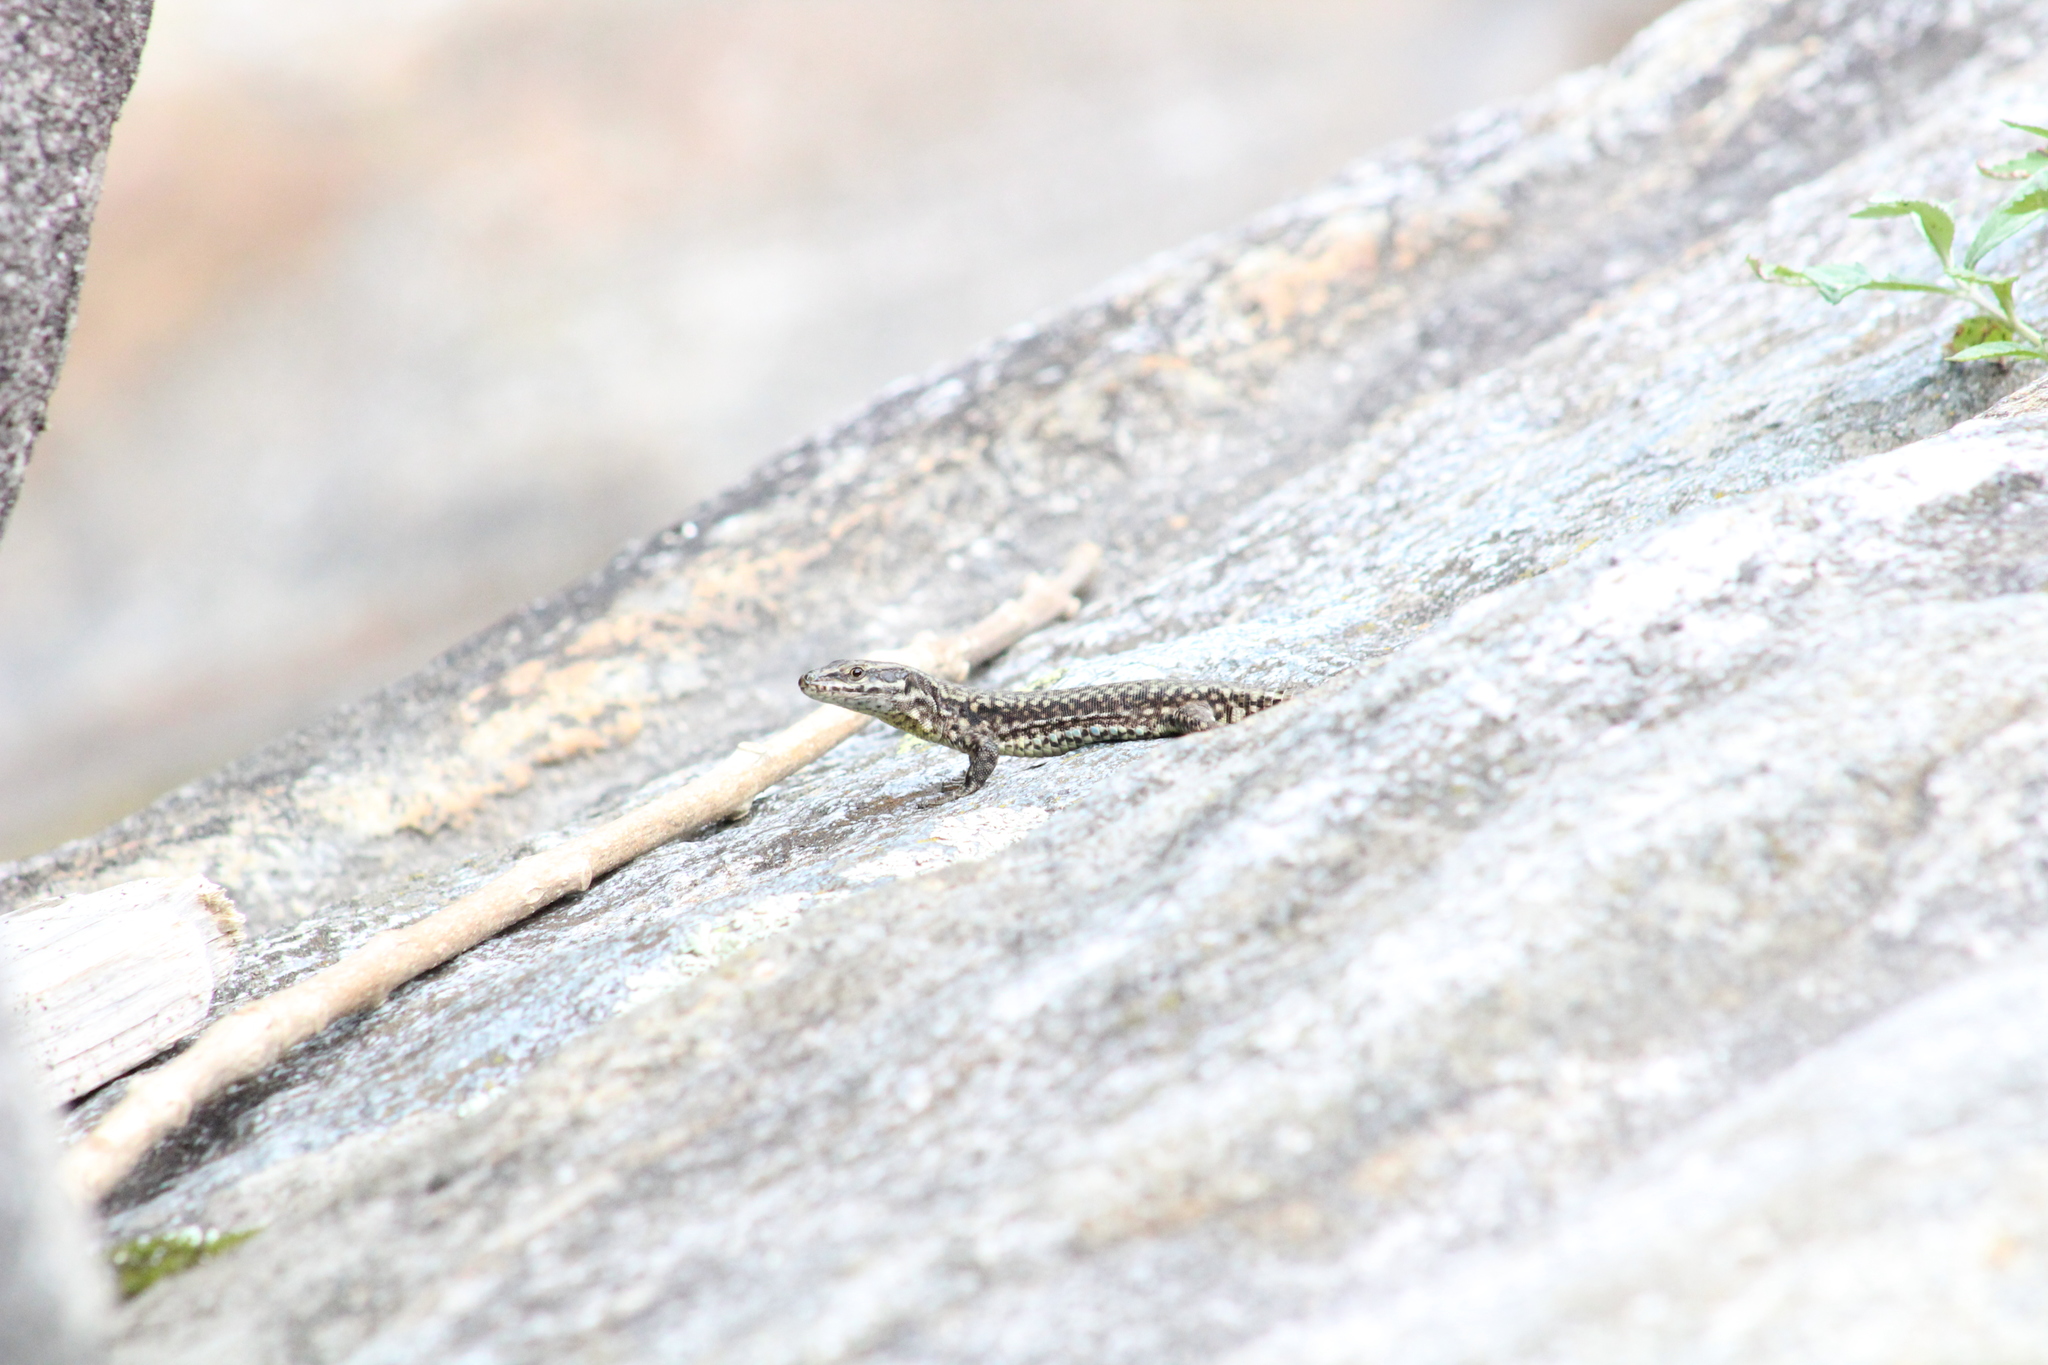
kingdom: Animalia
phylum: Chordata
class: Squamata
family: Lacertidae
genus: Podarcis
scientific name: Podarcis muralis
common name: Common wall lizard
